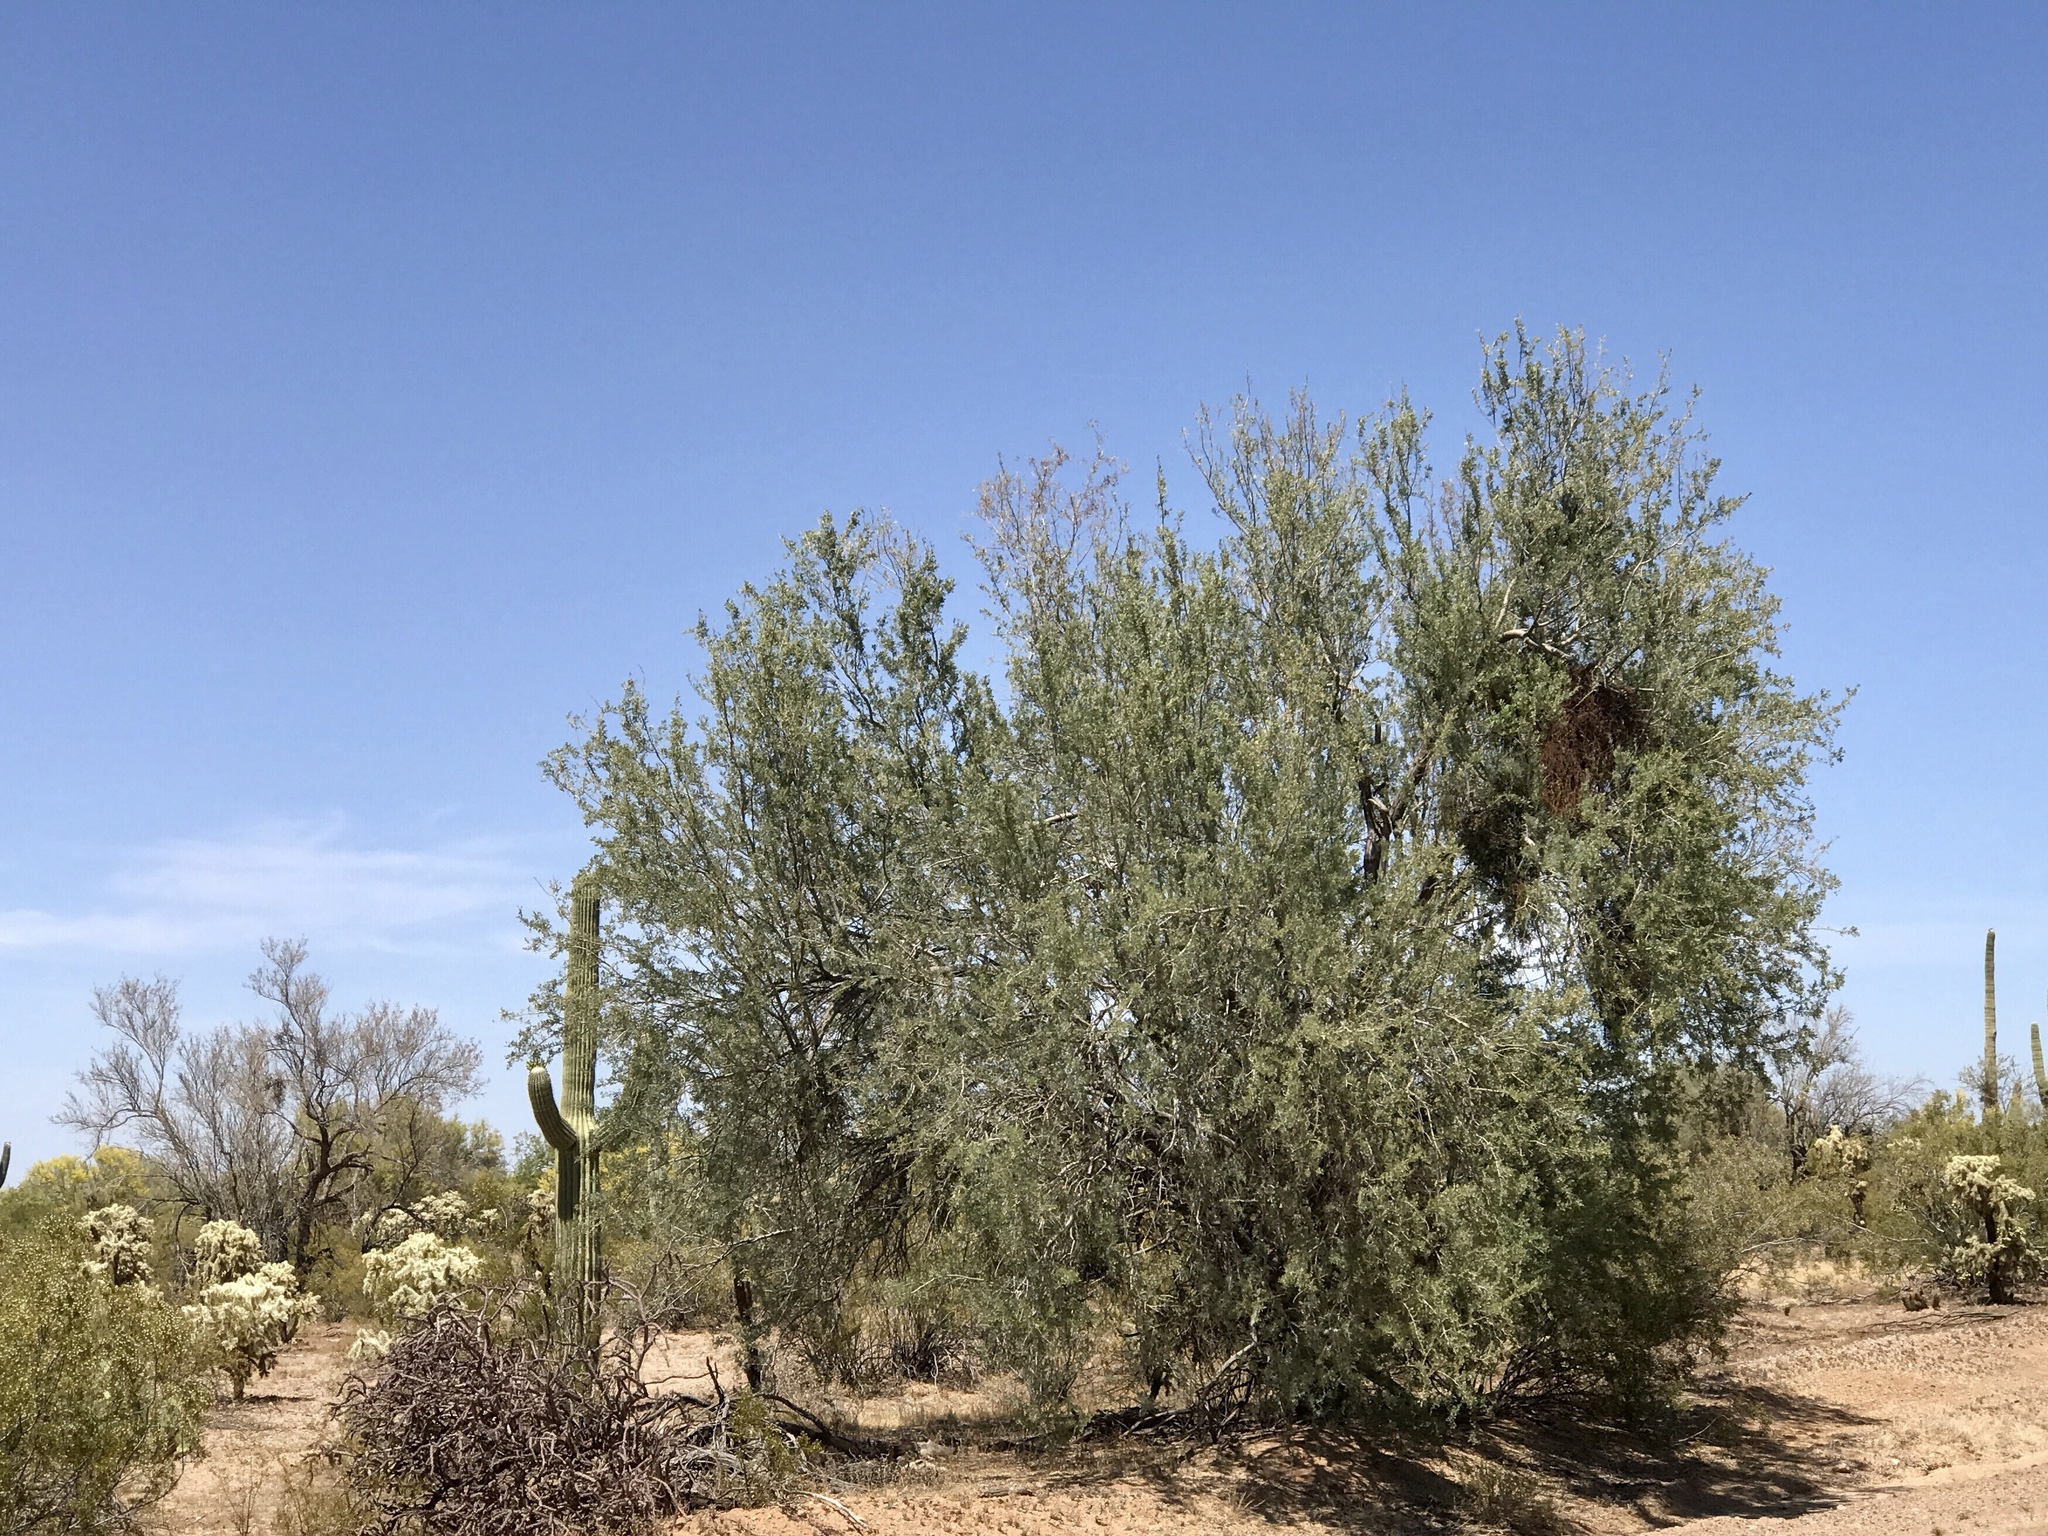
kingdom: Plantae
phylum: Tracheophyta
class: Magnoliopsida
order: Fabales
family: Fabaceae
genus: Olneya
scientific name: Olneya tesota
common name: Desert ironwood
